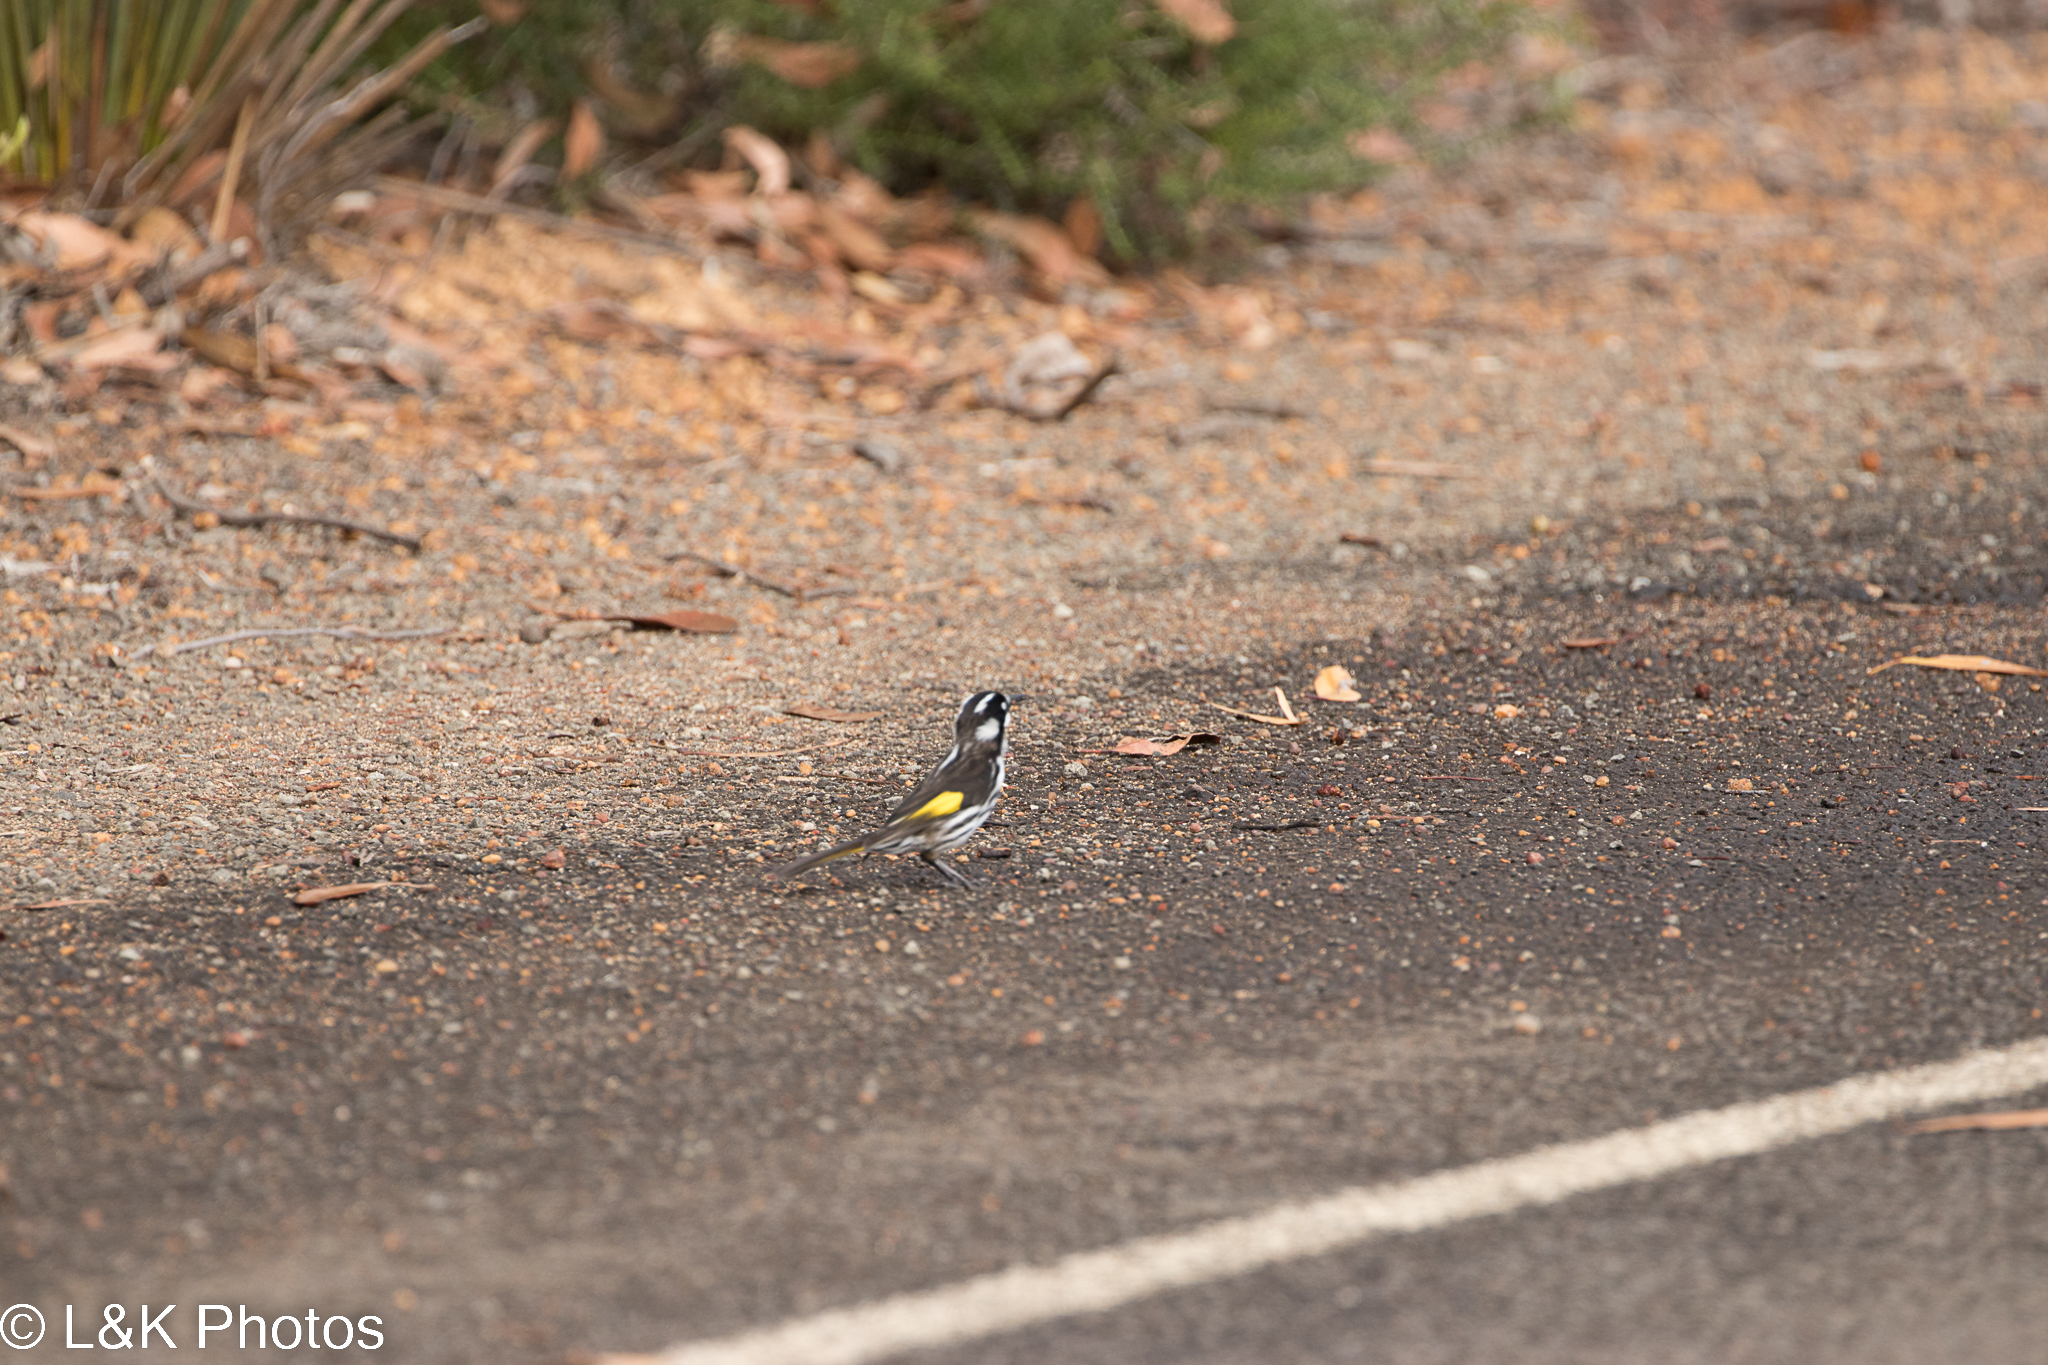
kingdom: Animalia
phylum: Chordata
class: Aves
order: Passeriformes
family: Meliphagidae
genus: Phylidonyris
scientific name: Phylidonyris novaehollandiae
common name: New holland honeyeater
